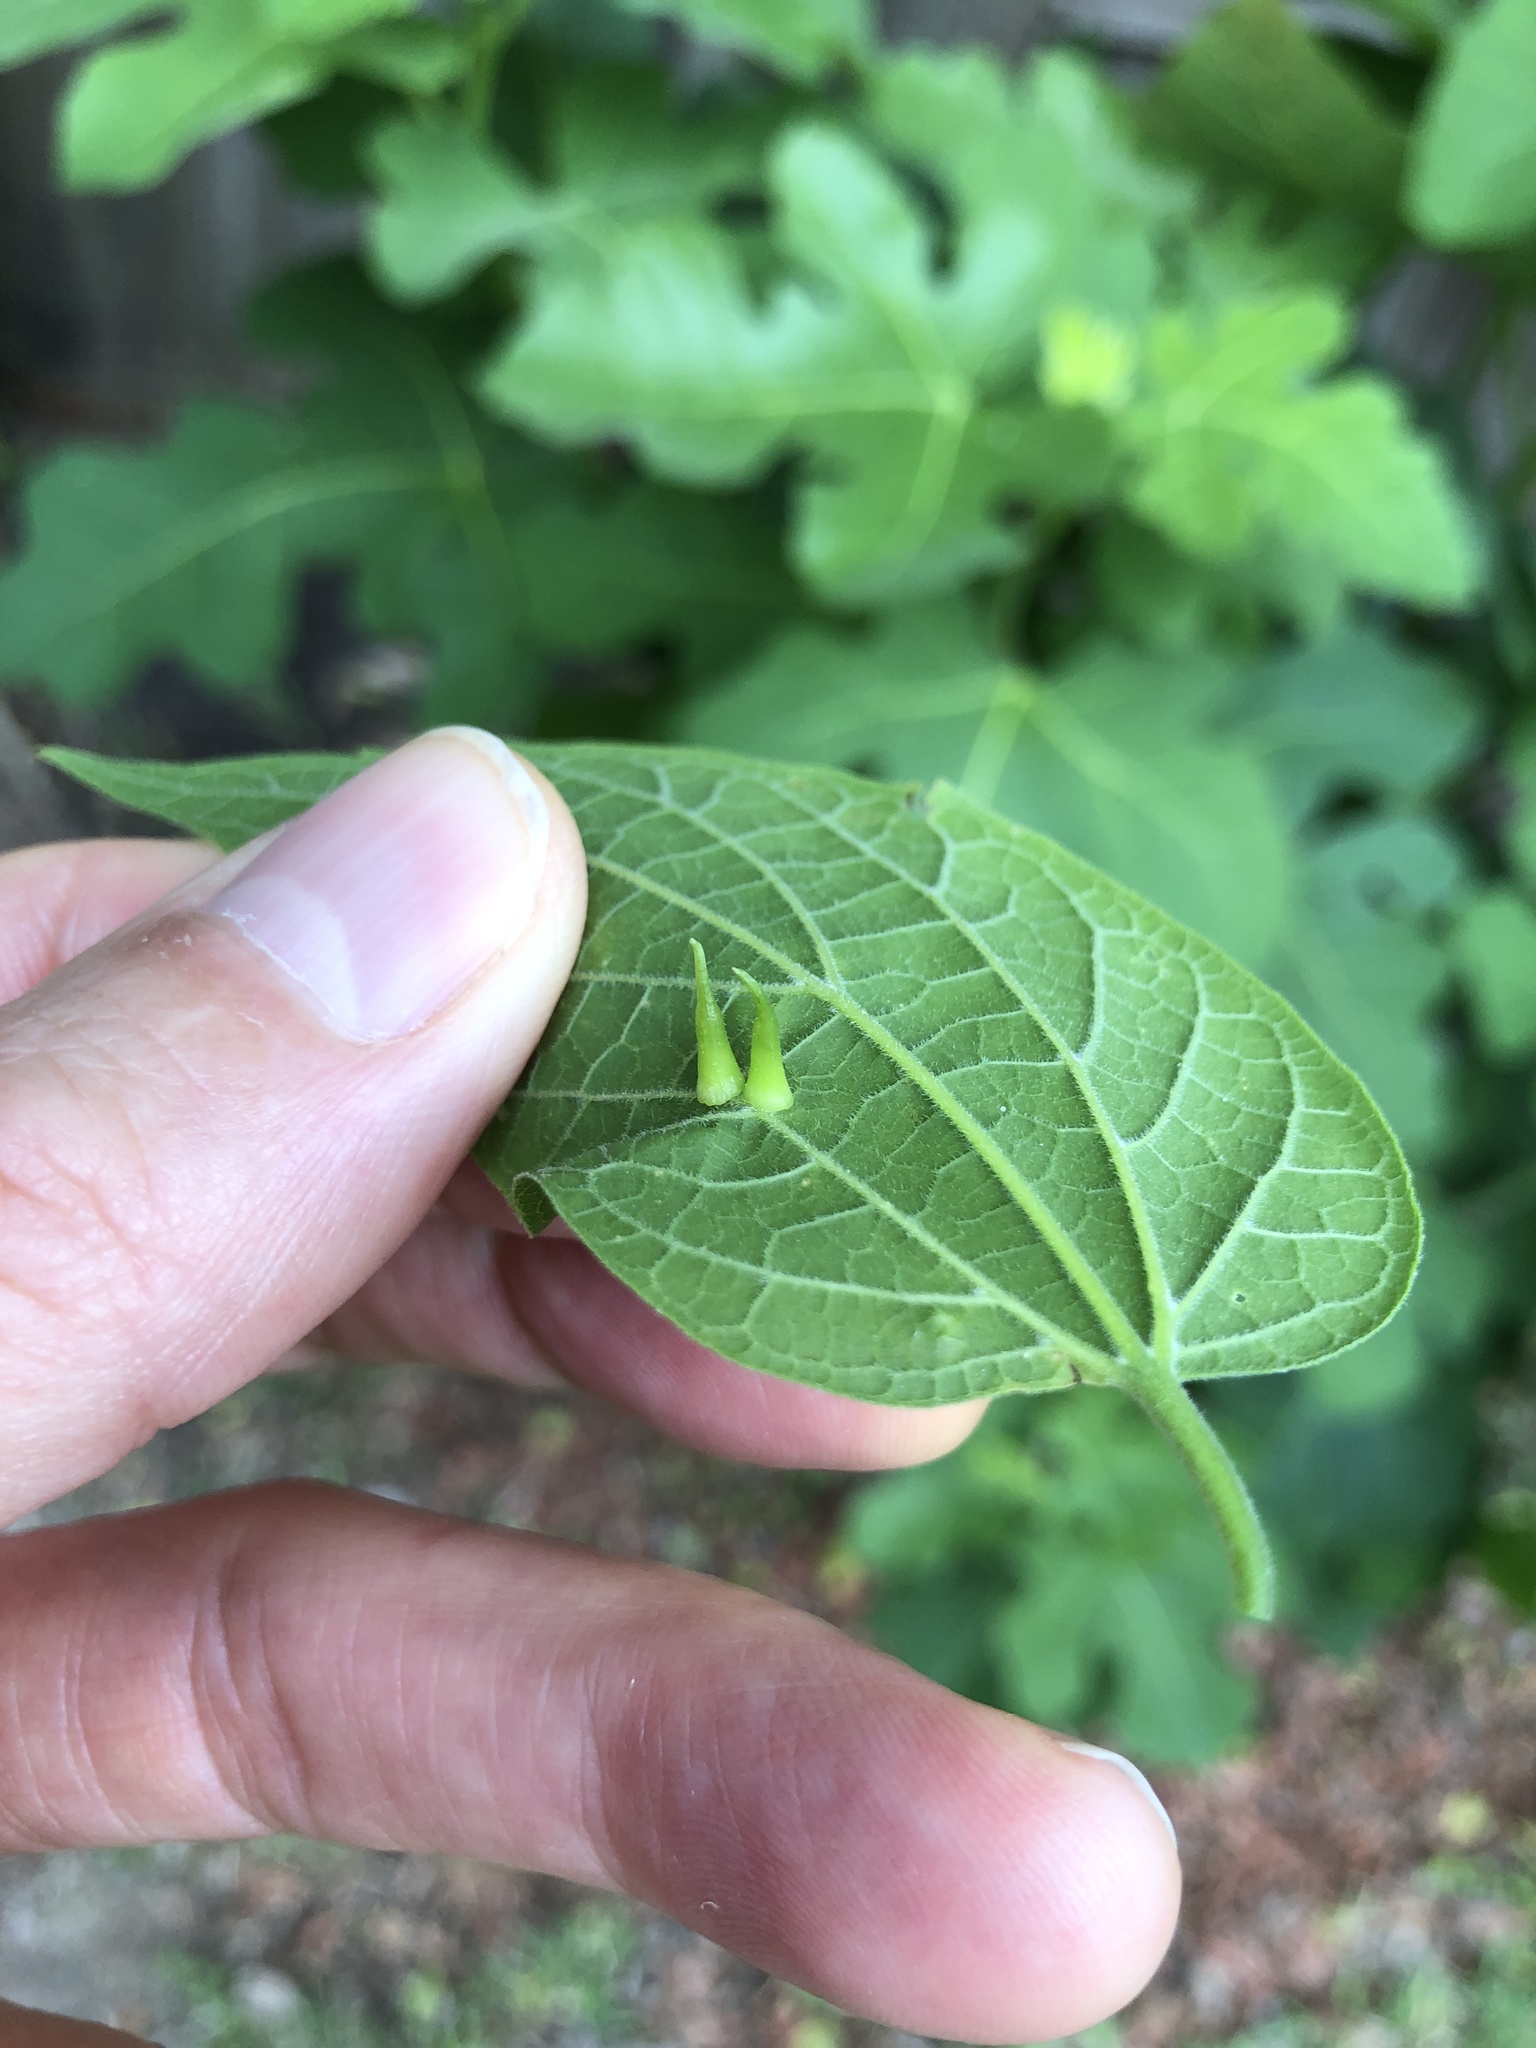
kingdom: Animalia
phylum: Arthropoda
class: Insecta
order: Diptera
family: Cecidomyiidae
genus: Celticecis
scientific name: Celticecis subulata
